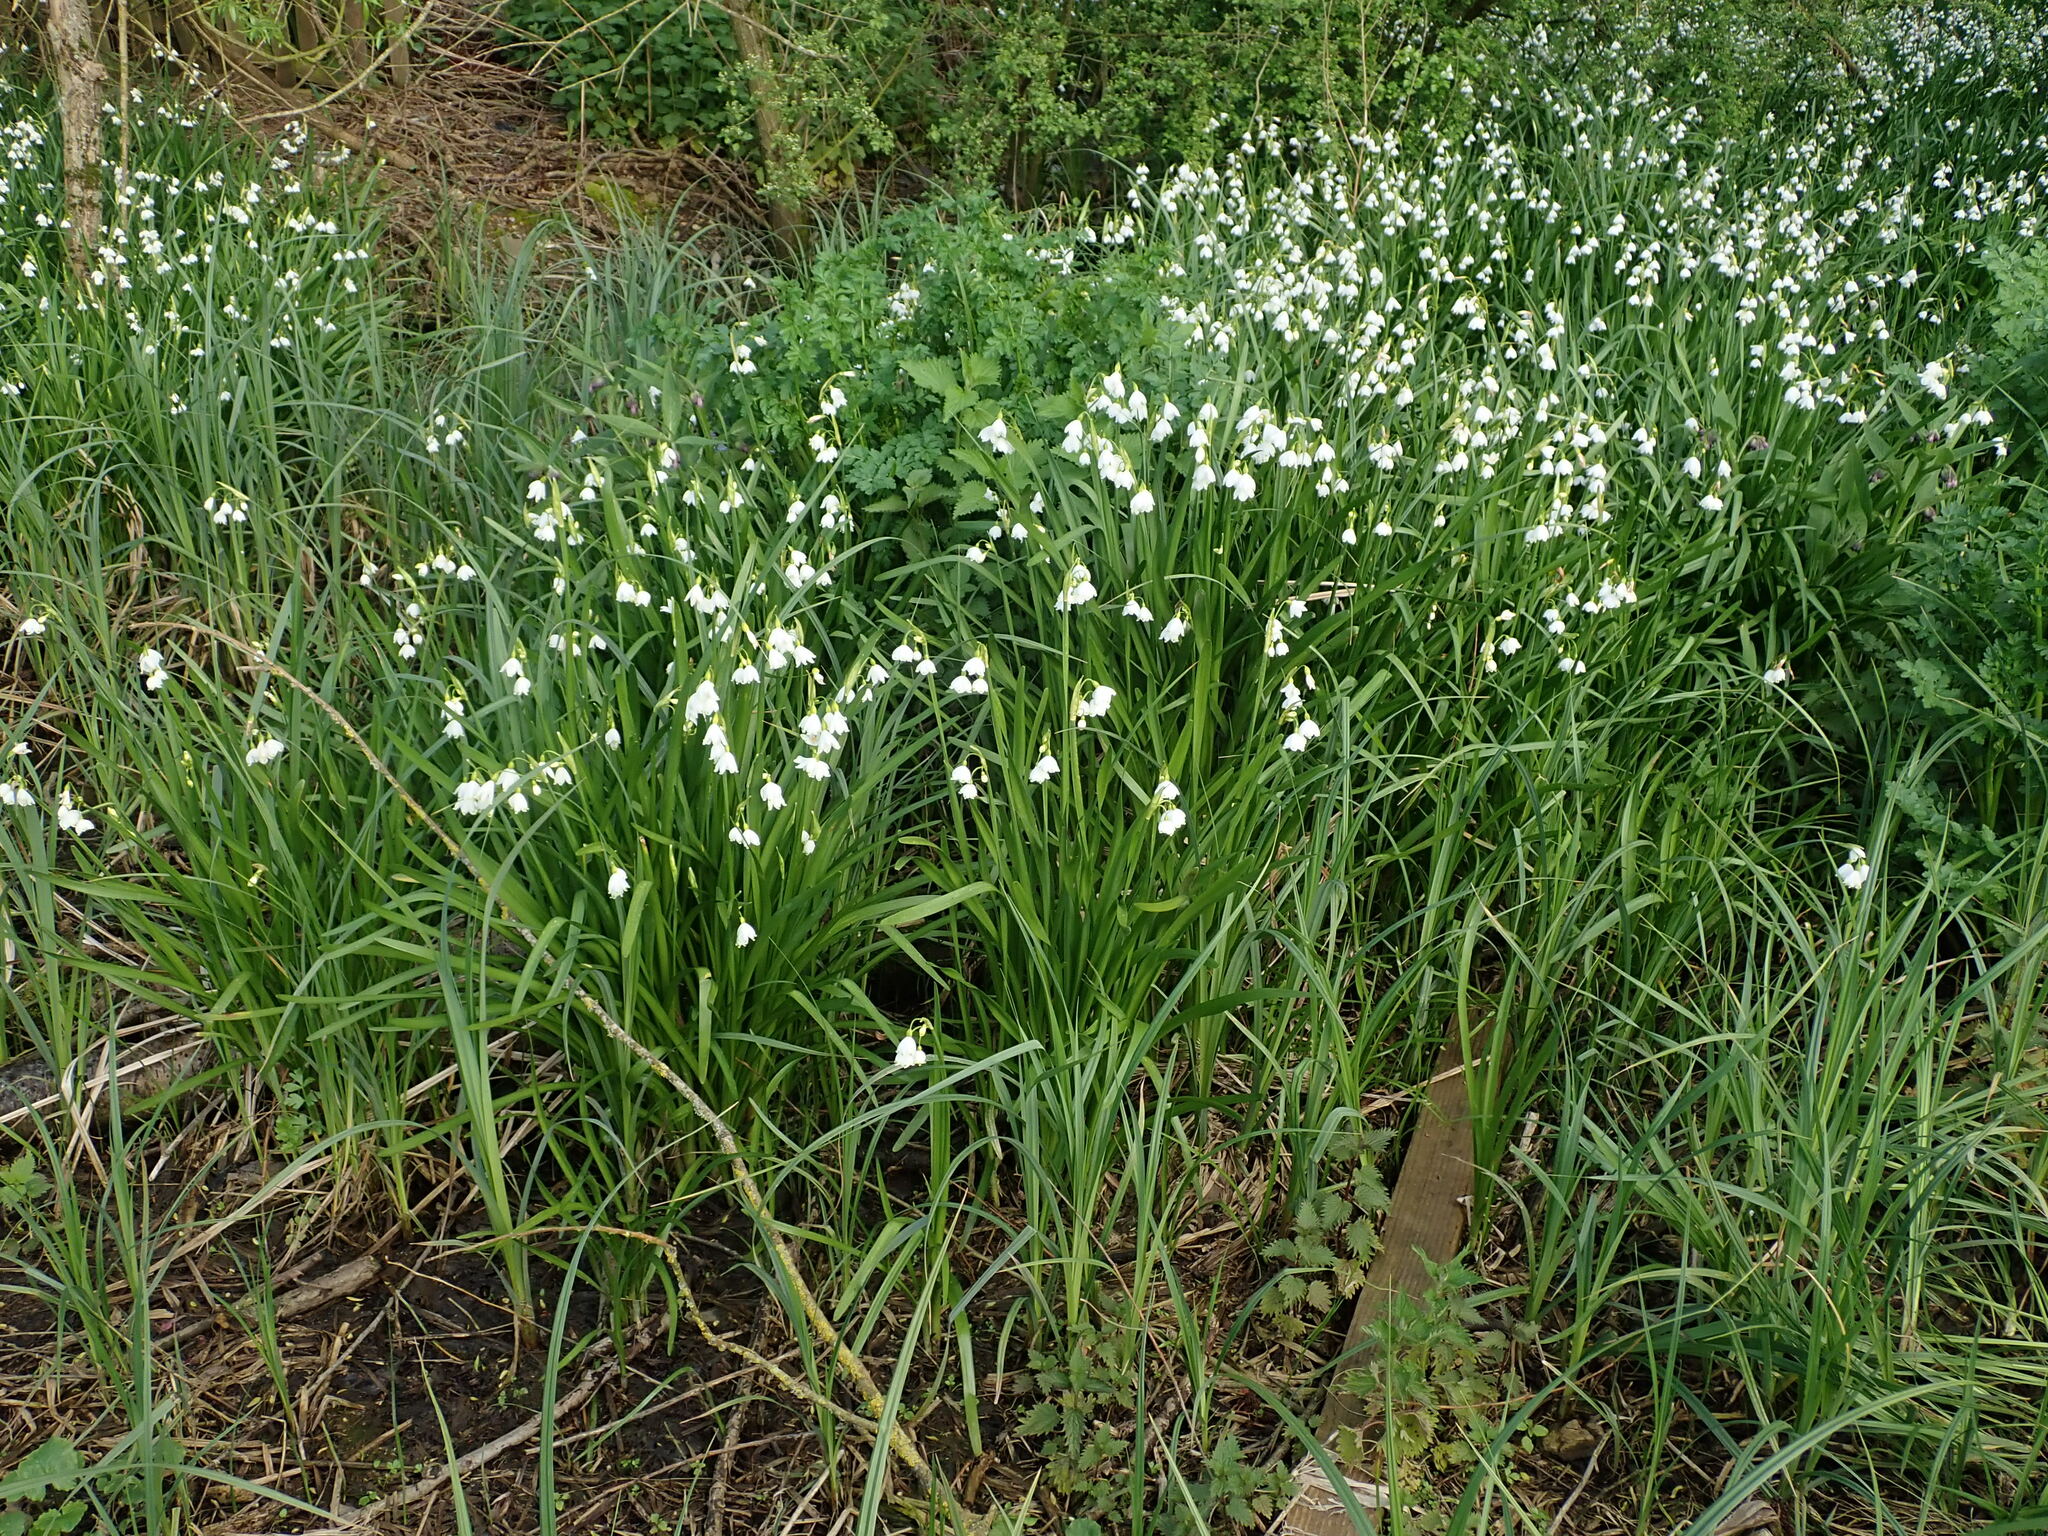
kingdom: Plantae
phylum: Tracheophyta
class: Liliopsida
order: Asparagales
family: Amaryllidaceae
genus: Leucojum
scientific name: Leucojum aestivum
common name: Summer snowflake
